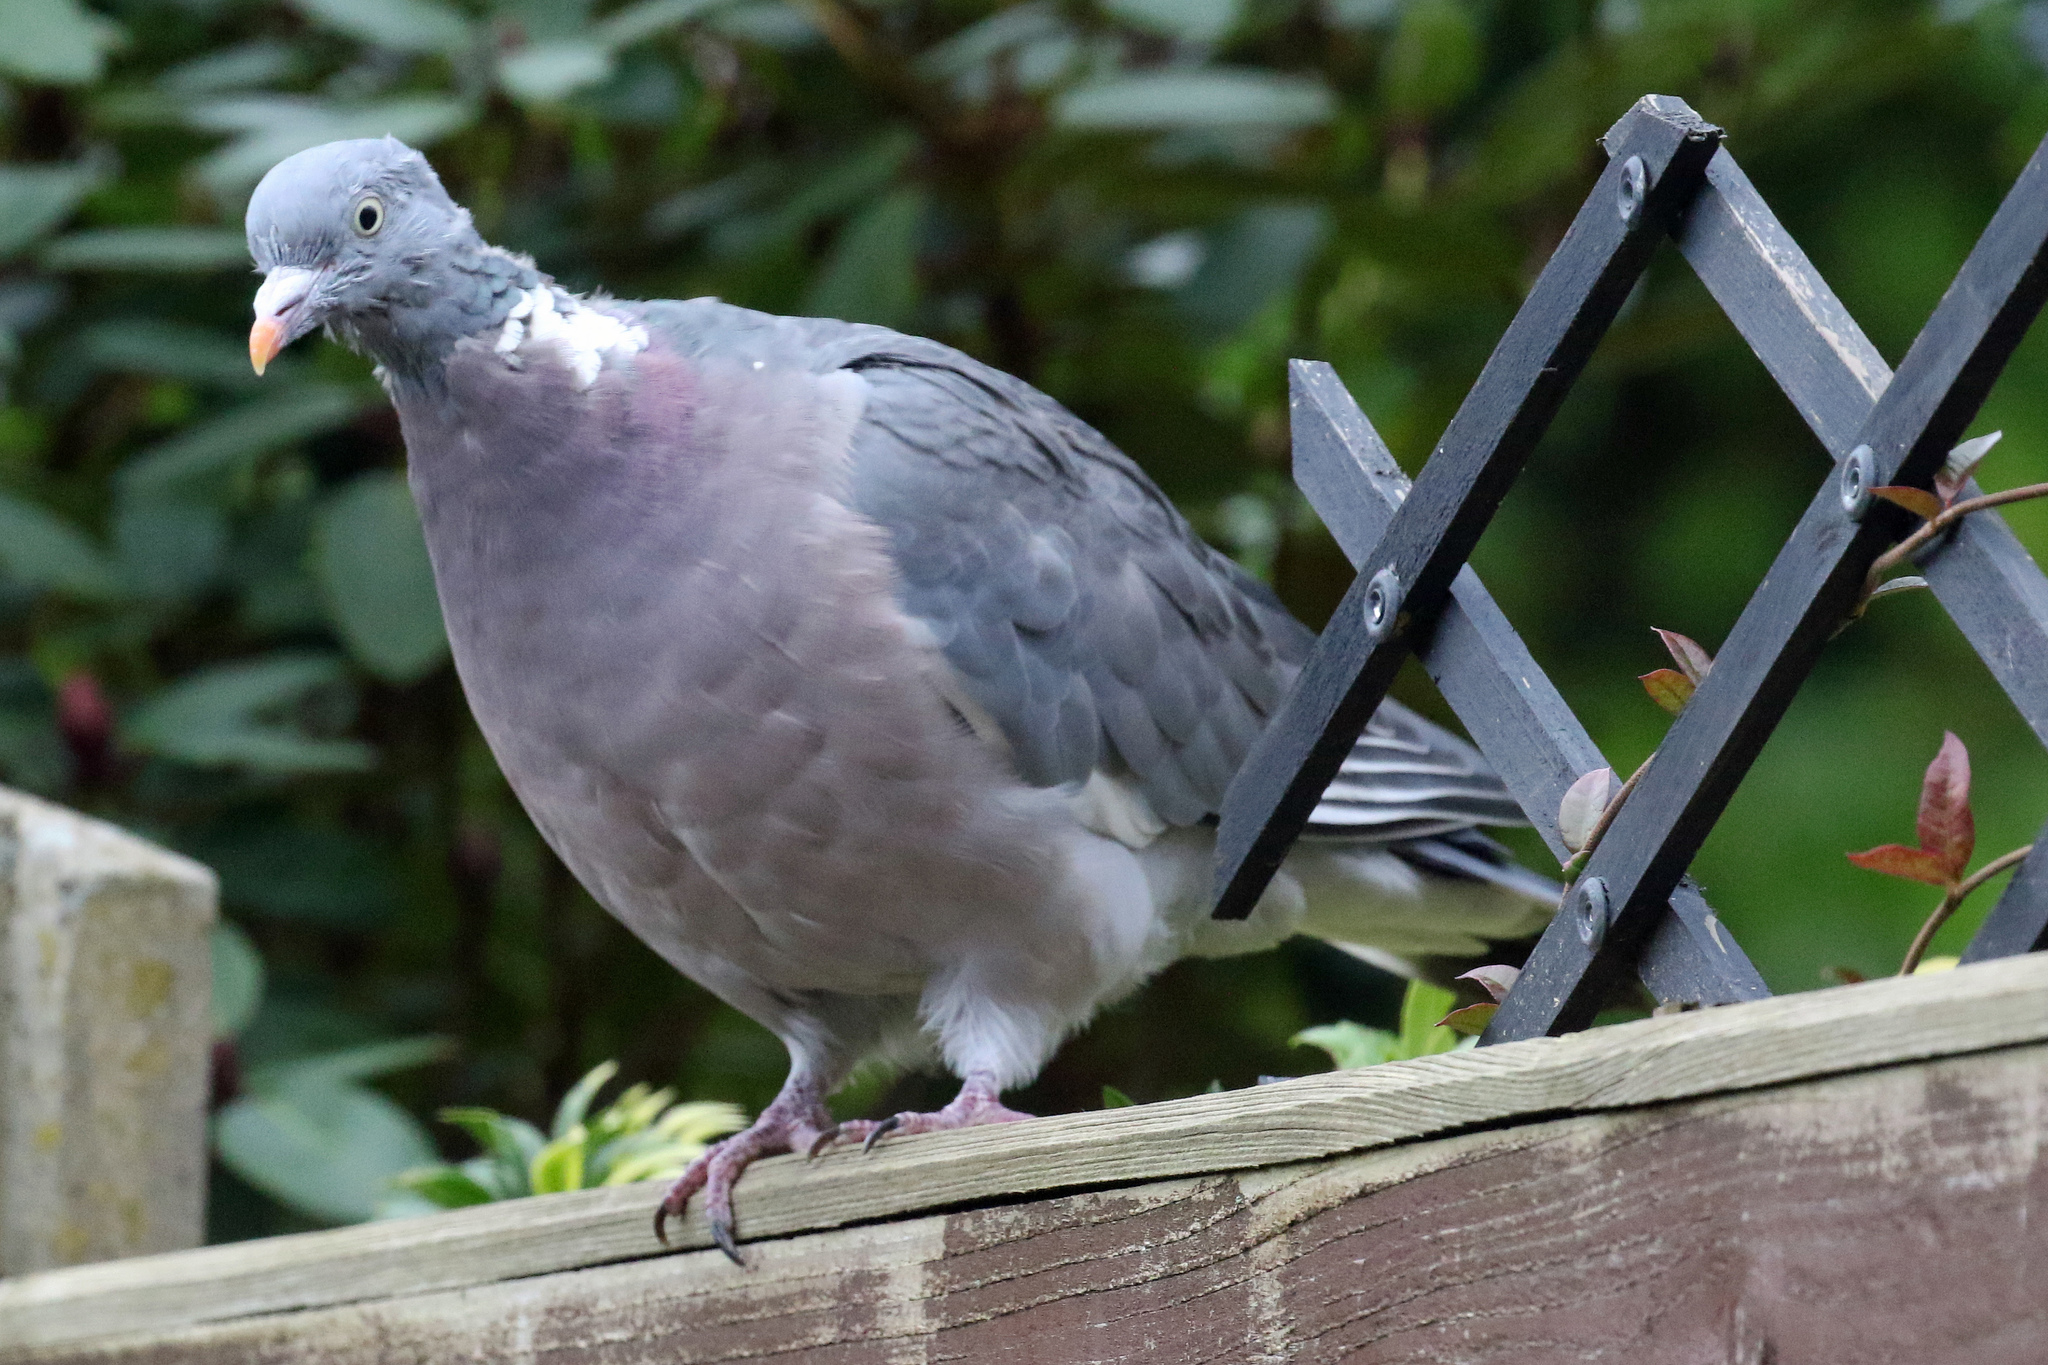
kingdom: Animalia
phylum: Chordata
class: Aves
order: Columbiformes
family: Columbidae
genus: Columba
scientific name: Columba palumbus
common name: Common wood pigeon
